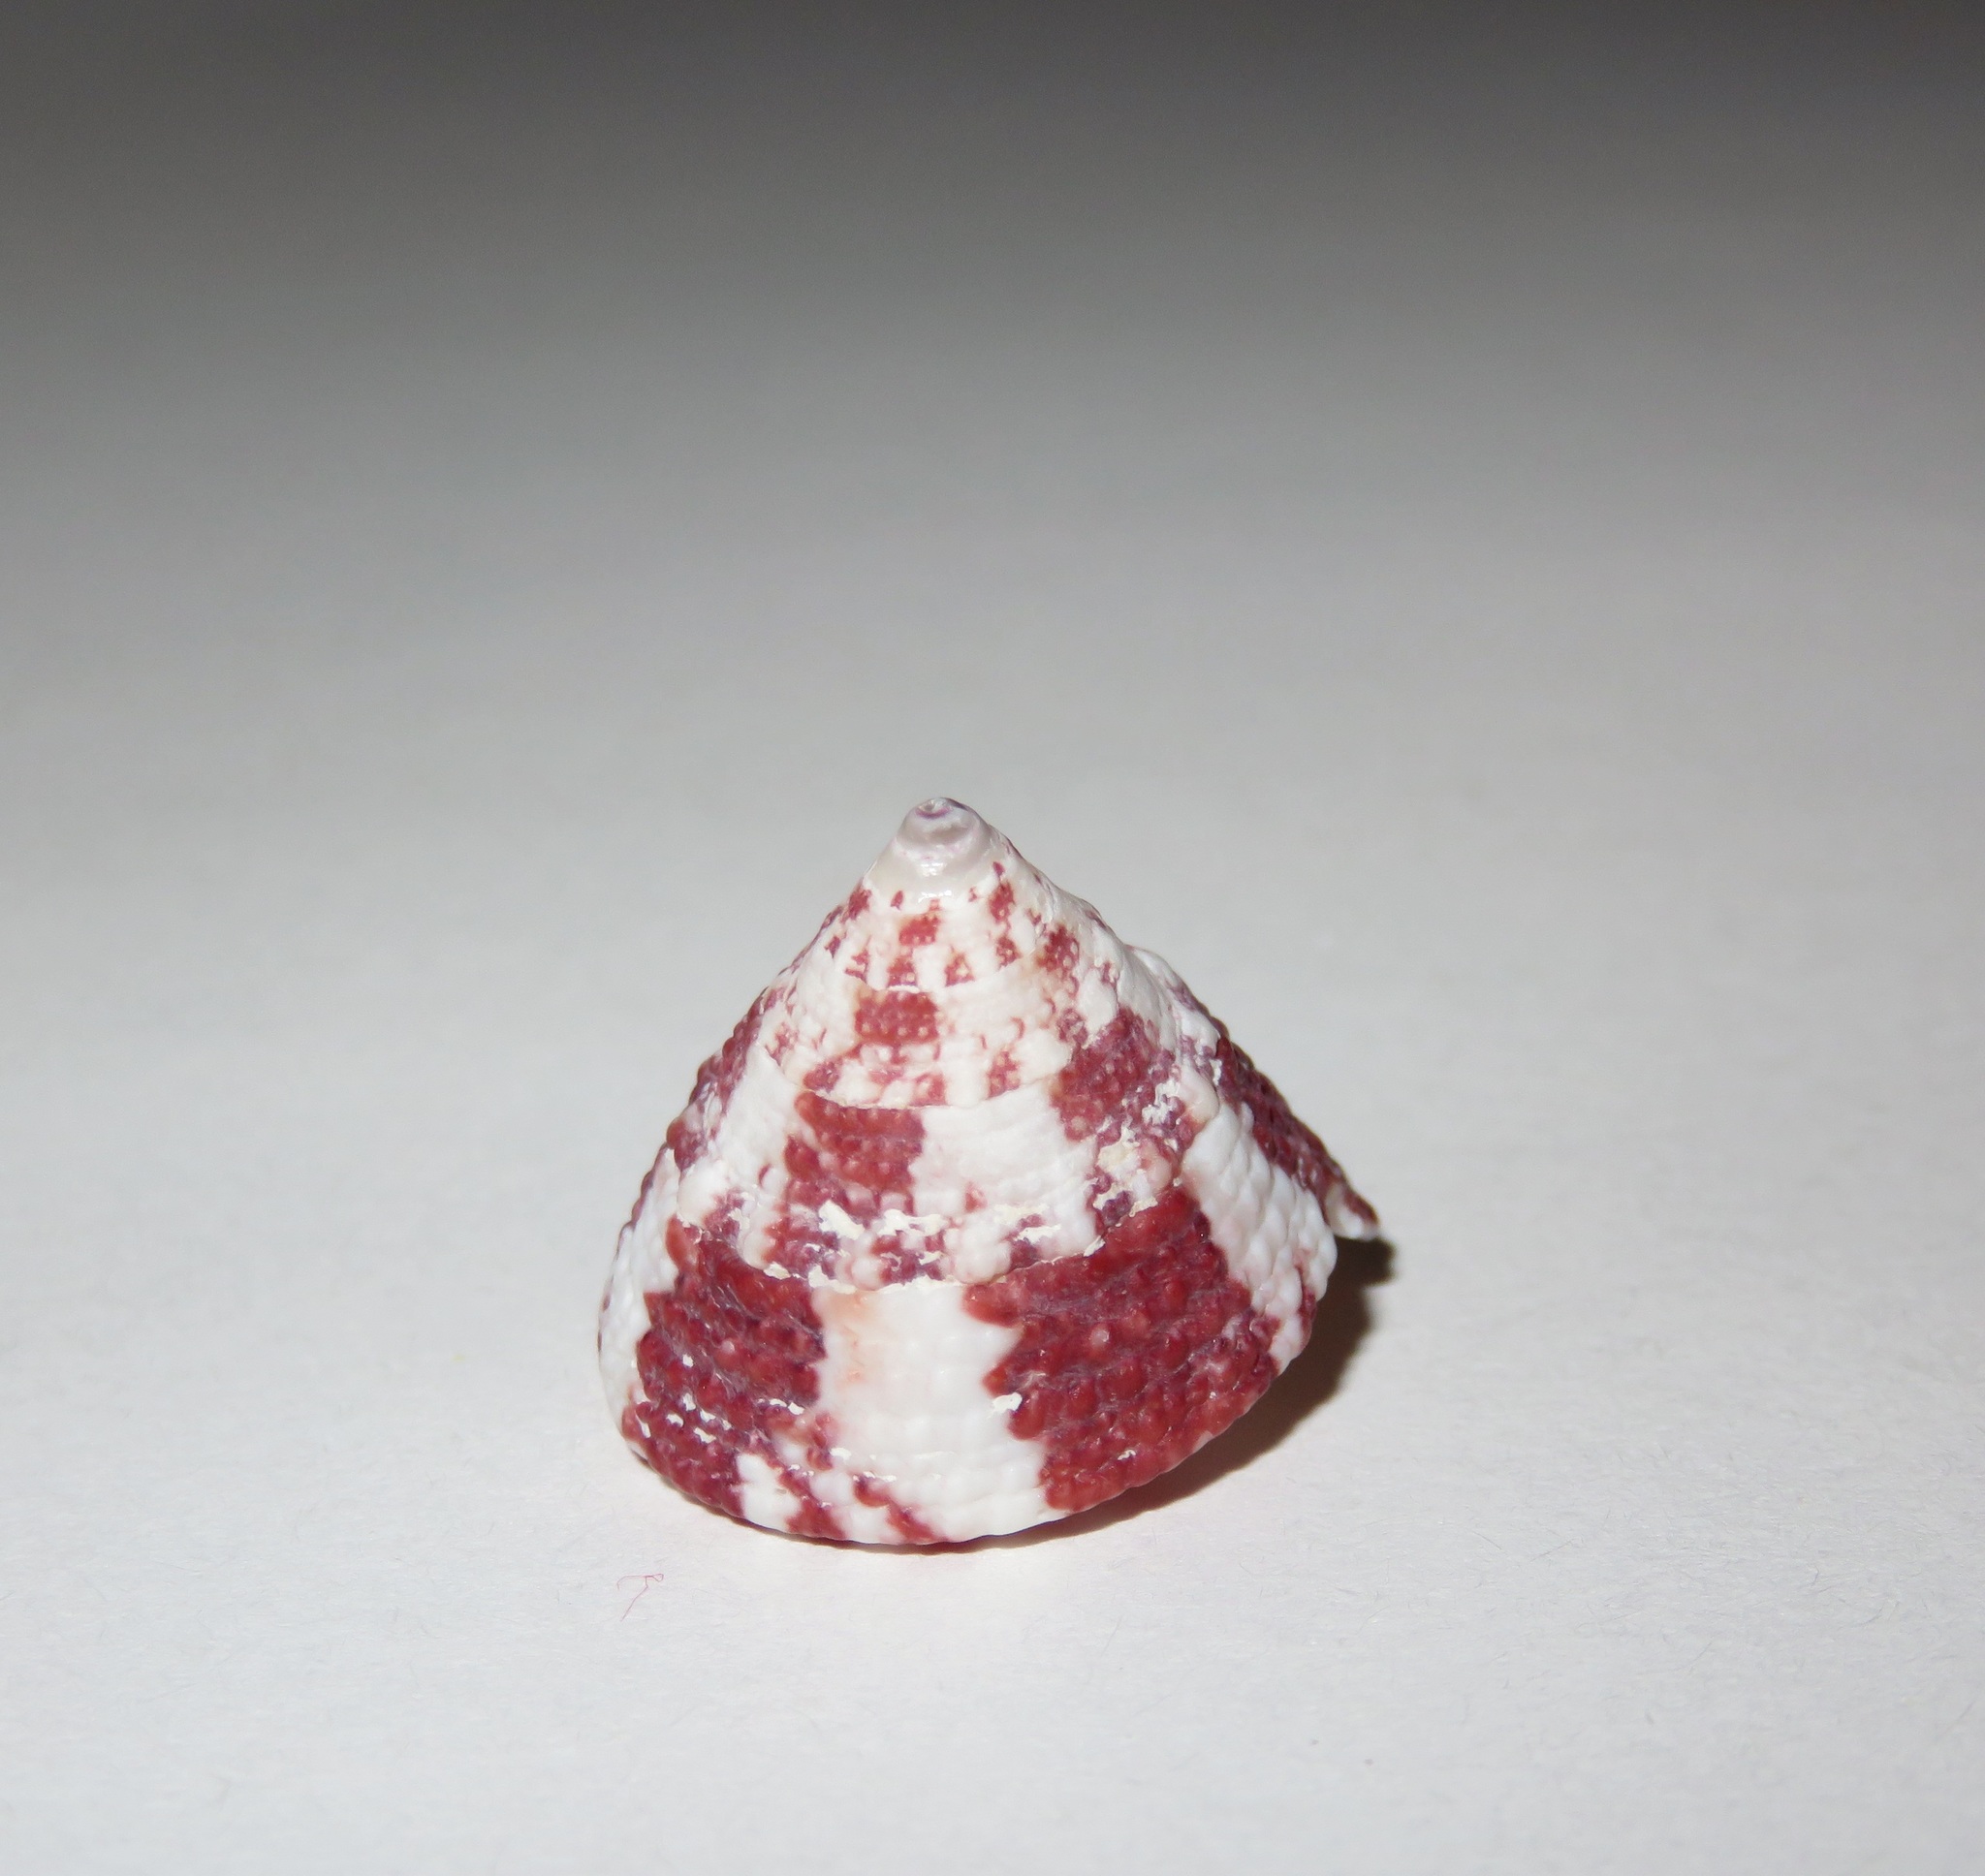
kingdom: Animalia
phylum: Mollusca
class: Gastropoda
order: Trochida
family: Trochidae
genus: Trochus
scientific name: Trochus maculatus
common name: Maculated top shell
